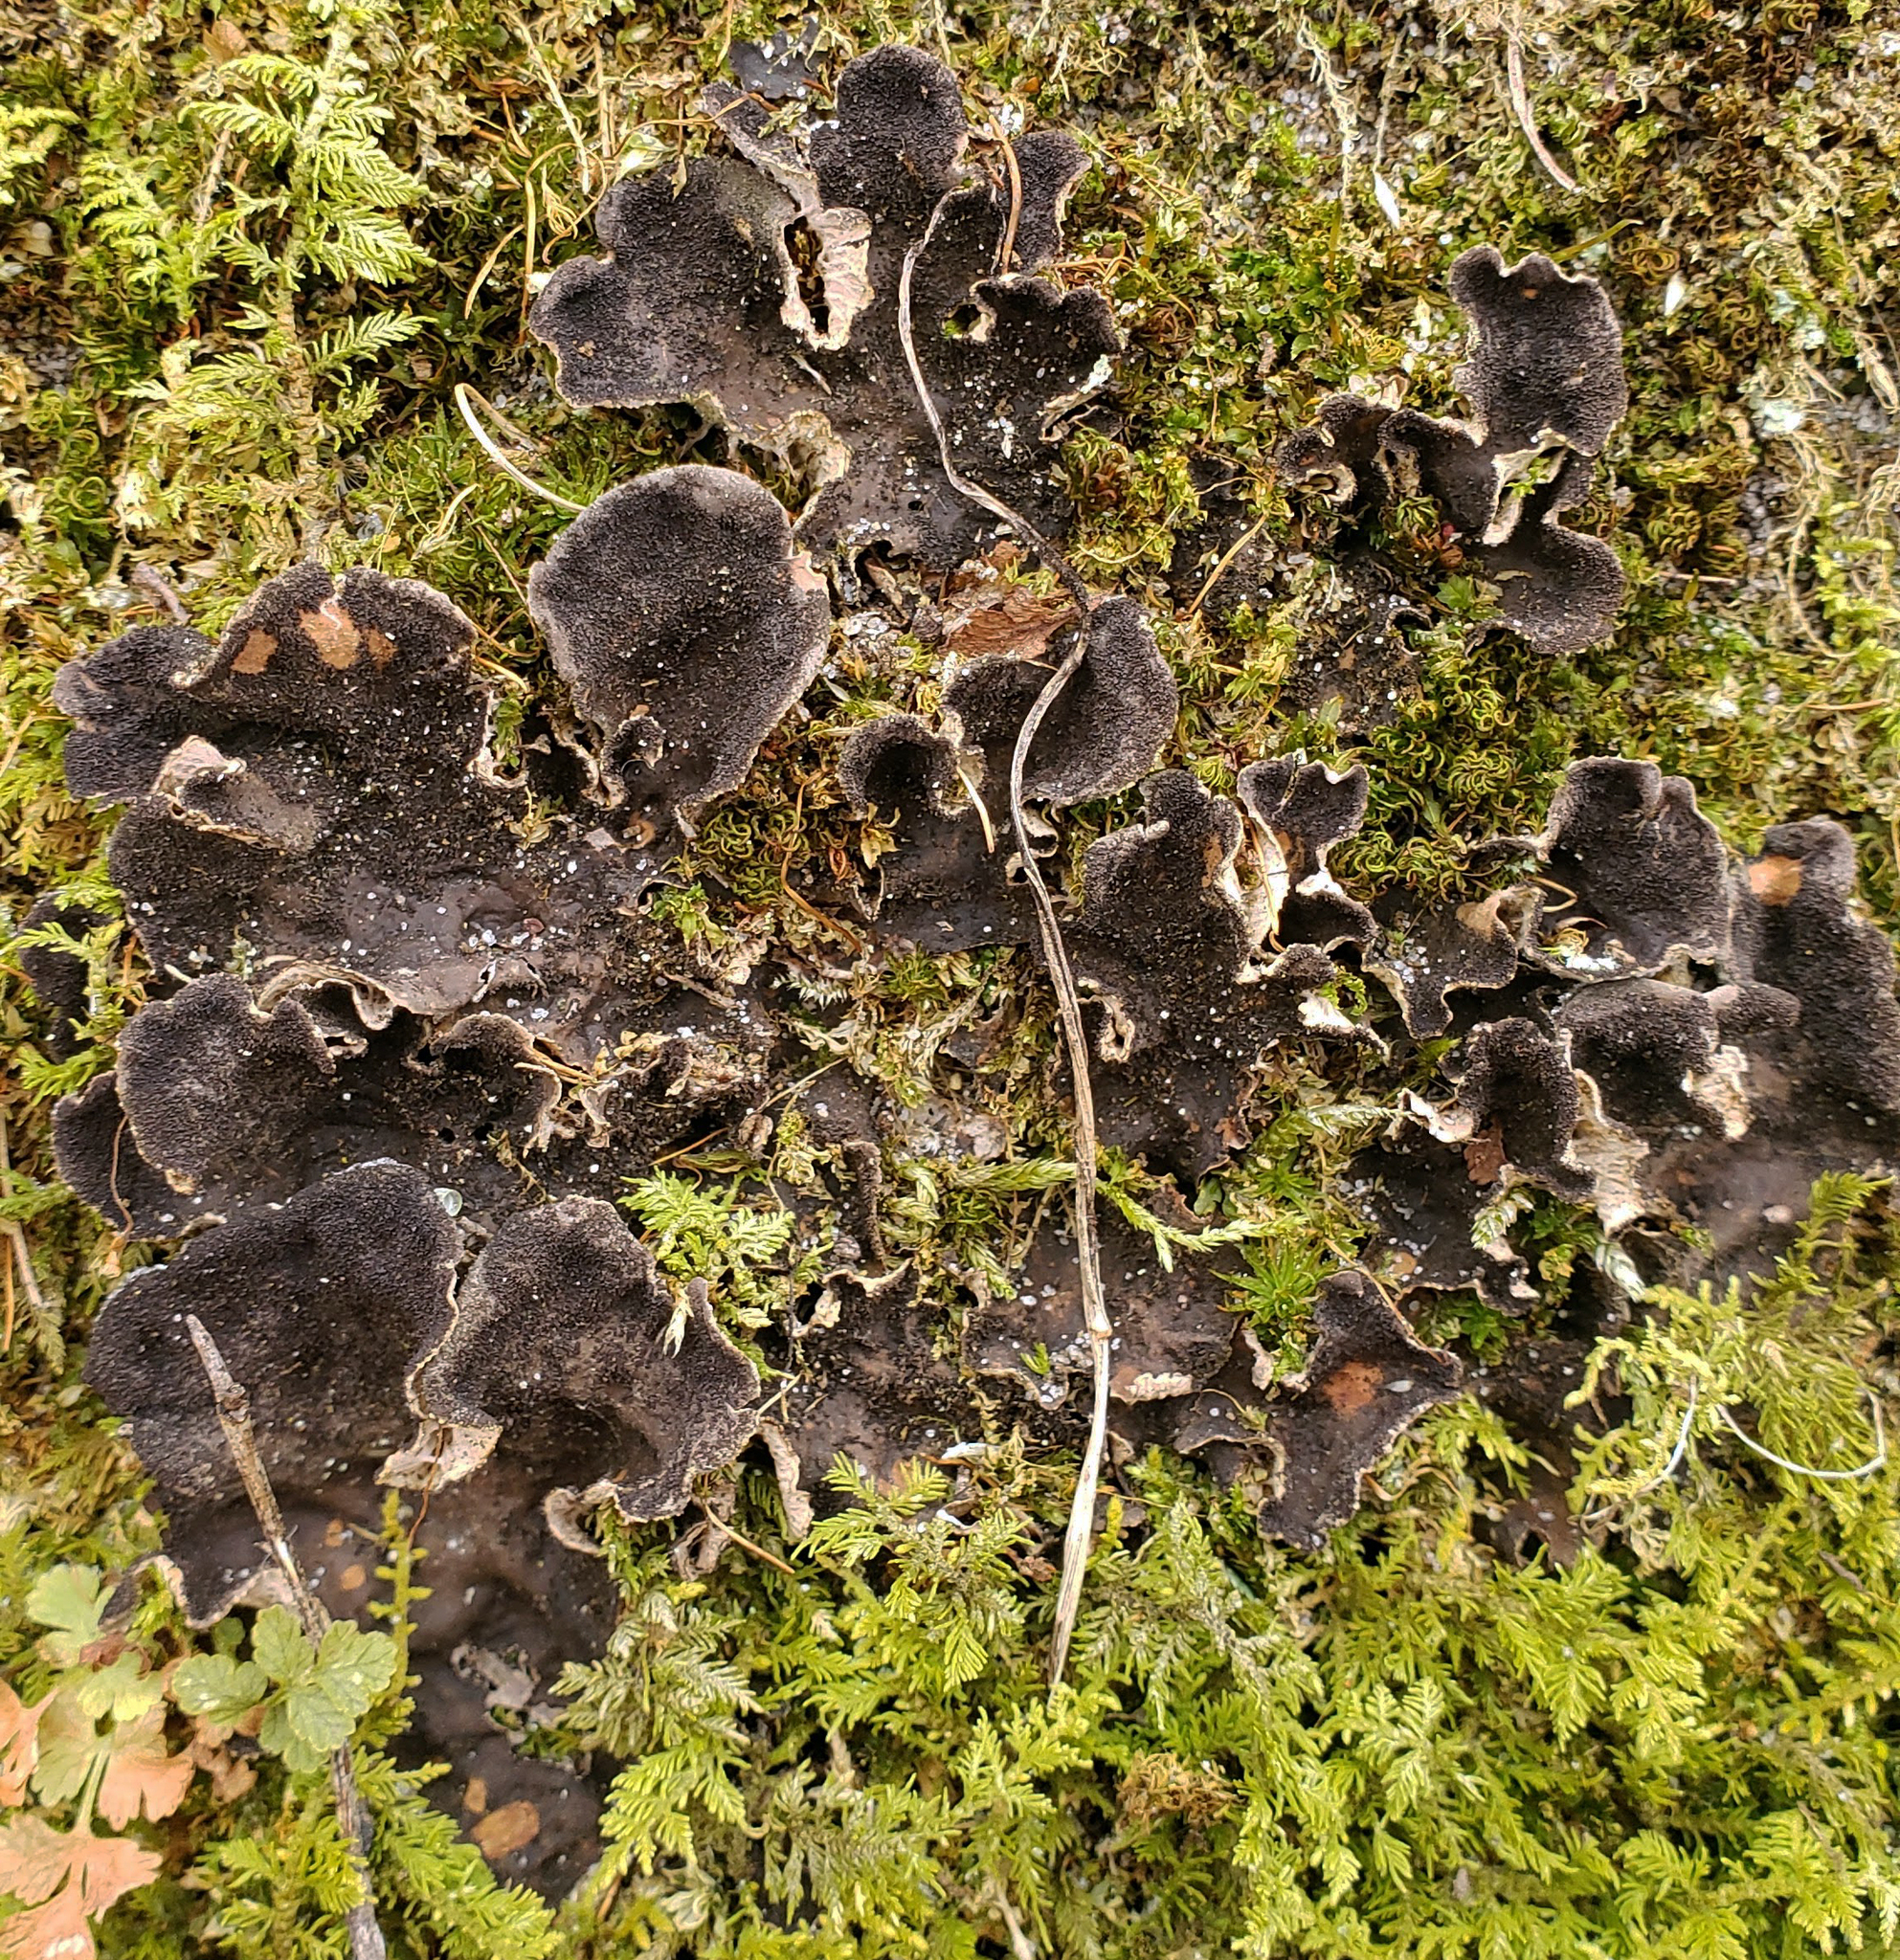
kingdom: Fungi
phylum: Ascomycota
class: Lecanoromycetes
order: Peltigerales
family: Peltigeraceae
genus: Peltigera
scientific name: Peltigera evansiana
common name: Peppered pelt lichen
